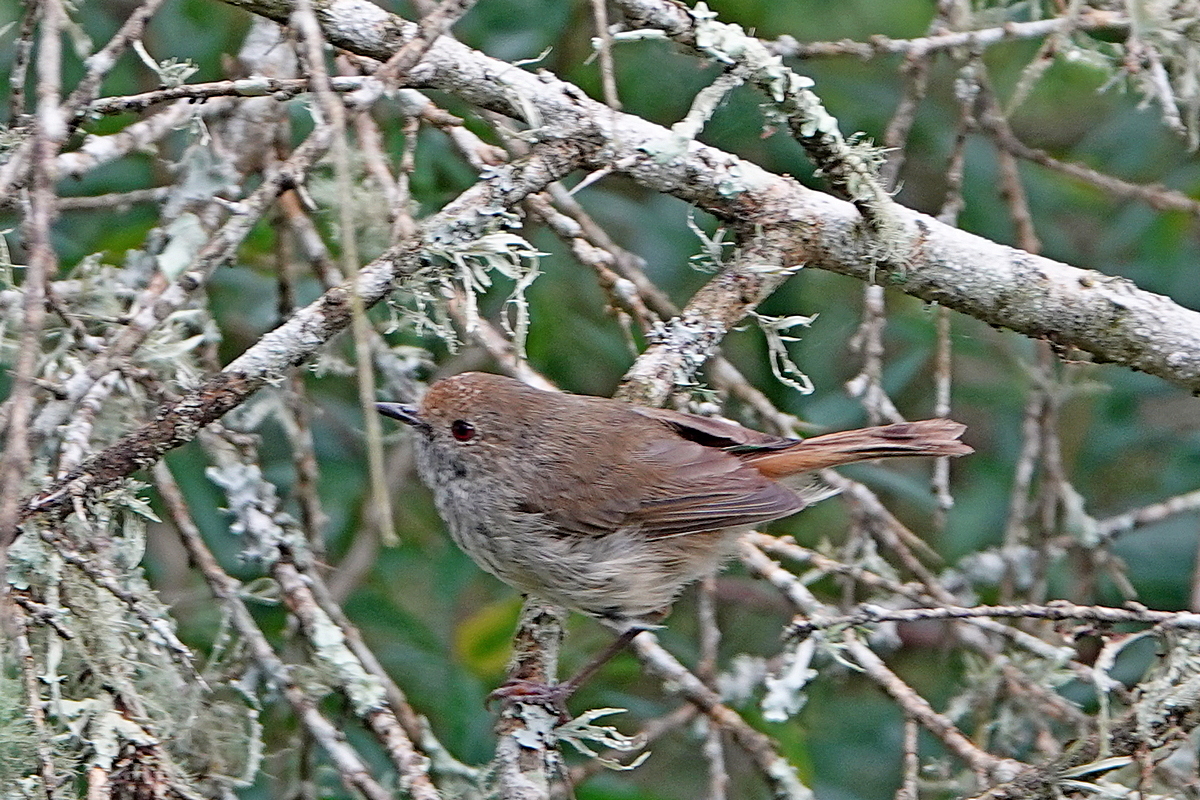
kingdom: Animalia
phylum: Chordata
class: Aves
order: Passeriformes
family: Acanthizidae
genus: Acanthiza
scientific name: Acanthiza pusilla
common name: Brown thornbill
